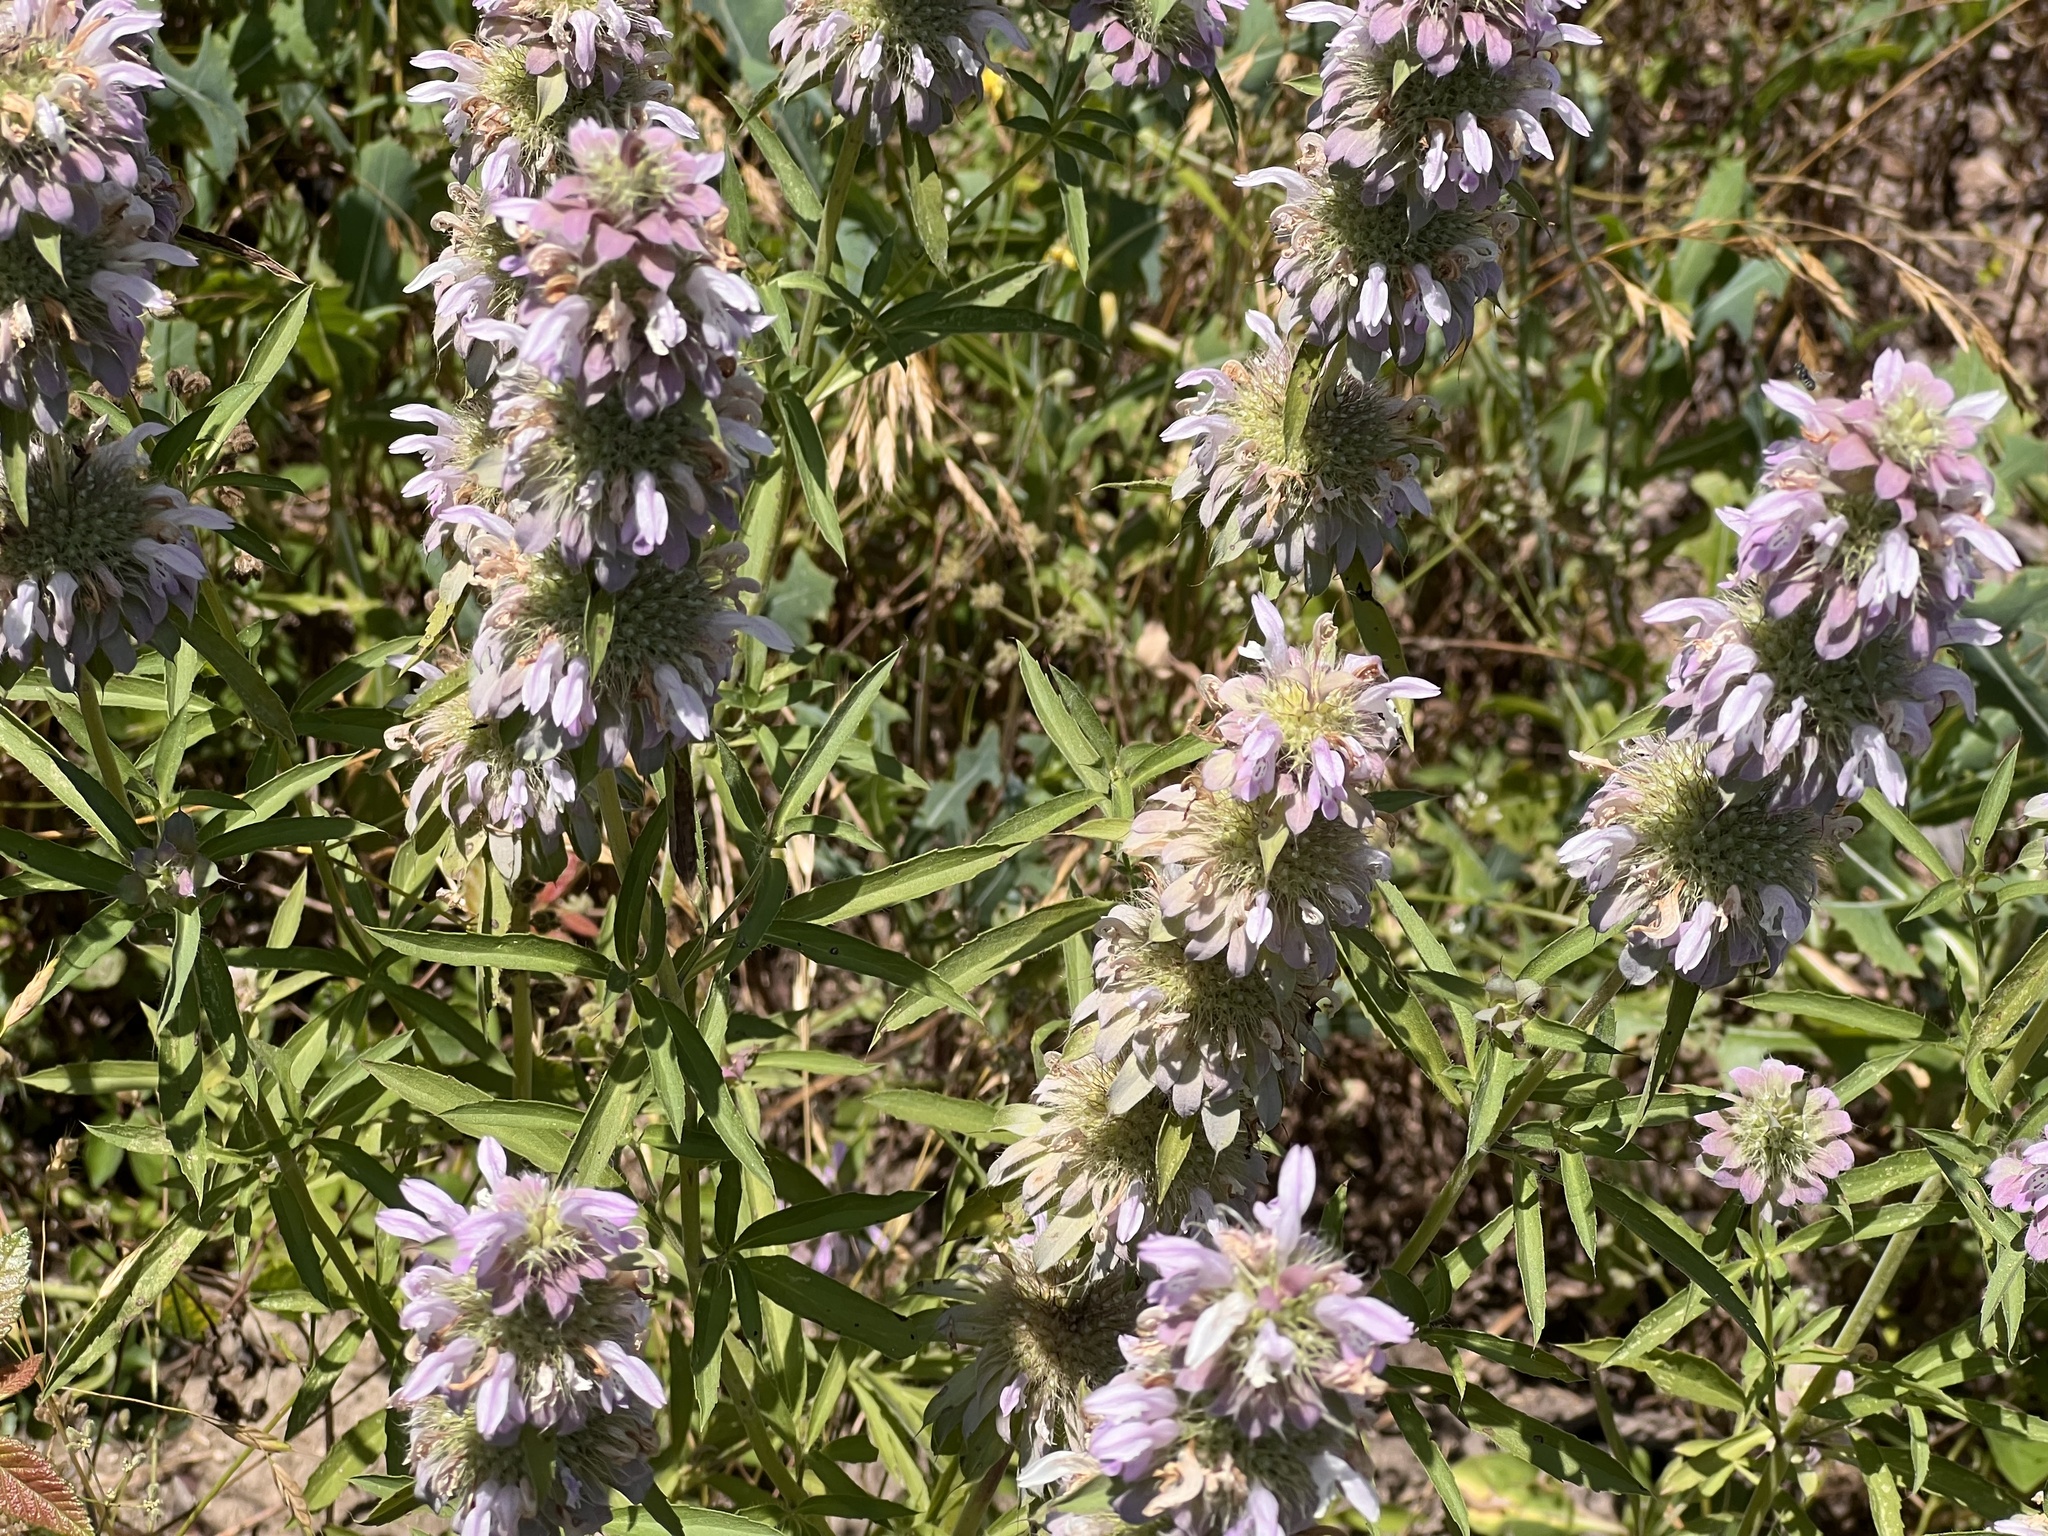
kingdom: Plantae
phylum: Tracheophyta
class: Magnoliopsida
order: Lamiales
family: Lamiaceae
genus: Monarda
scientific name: Monarda citriodora
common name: Lemon beebalm
